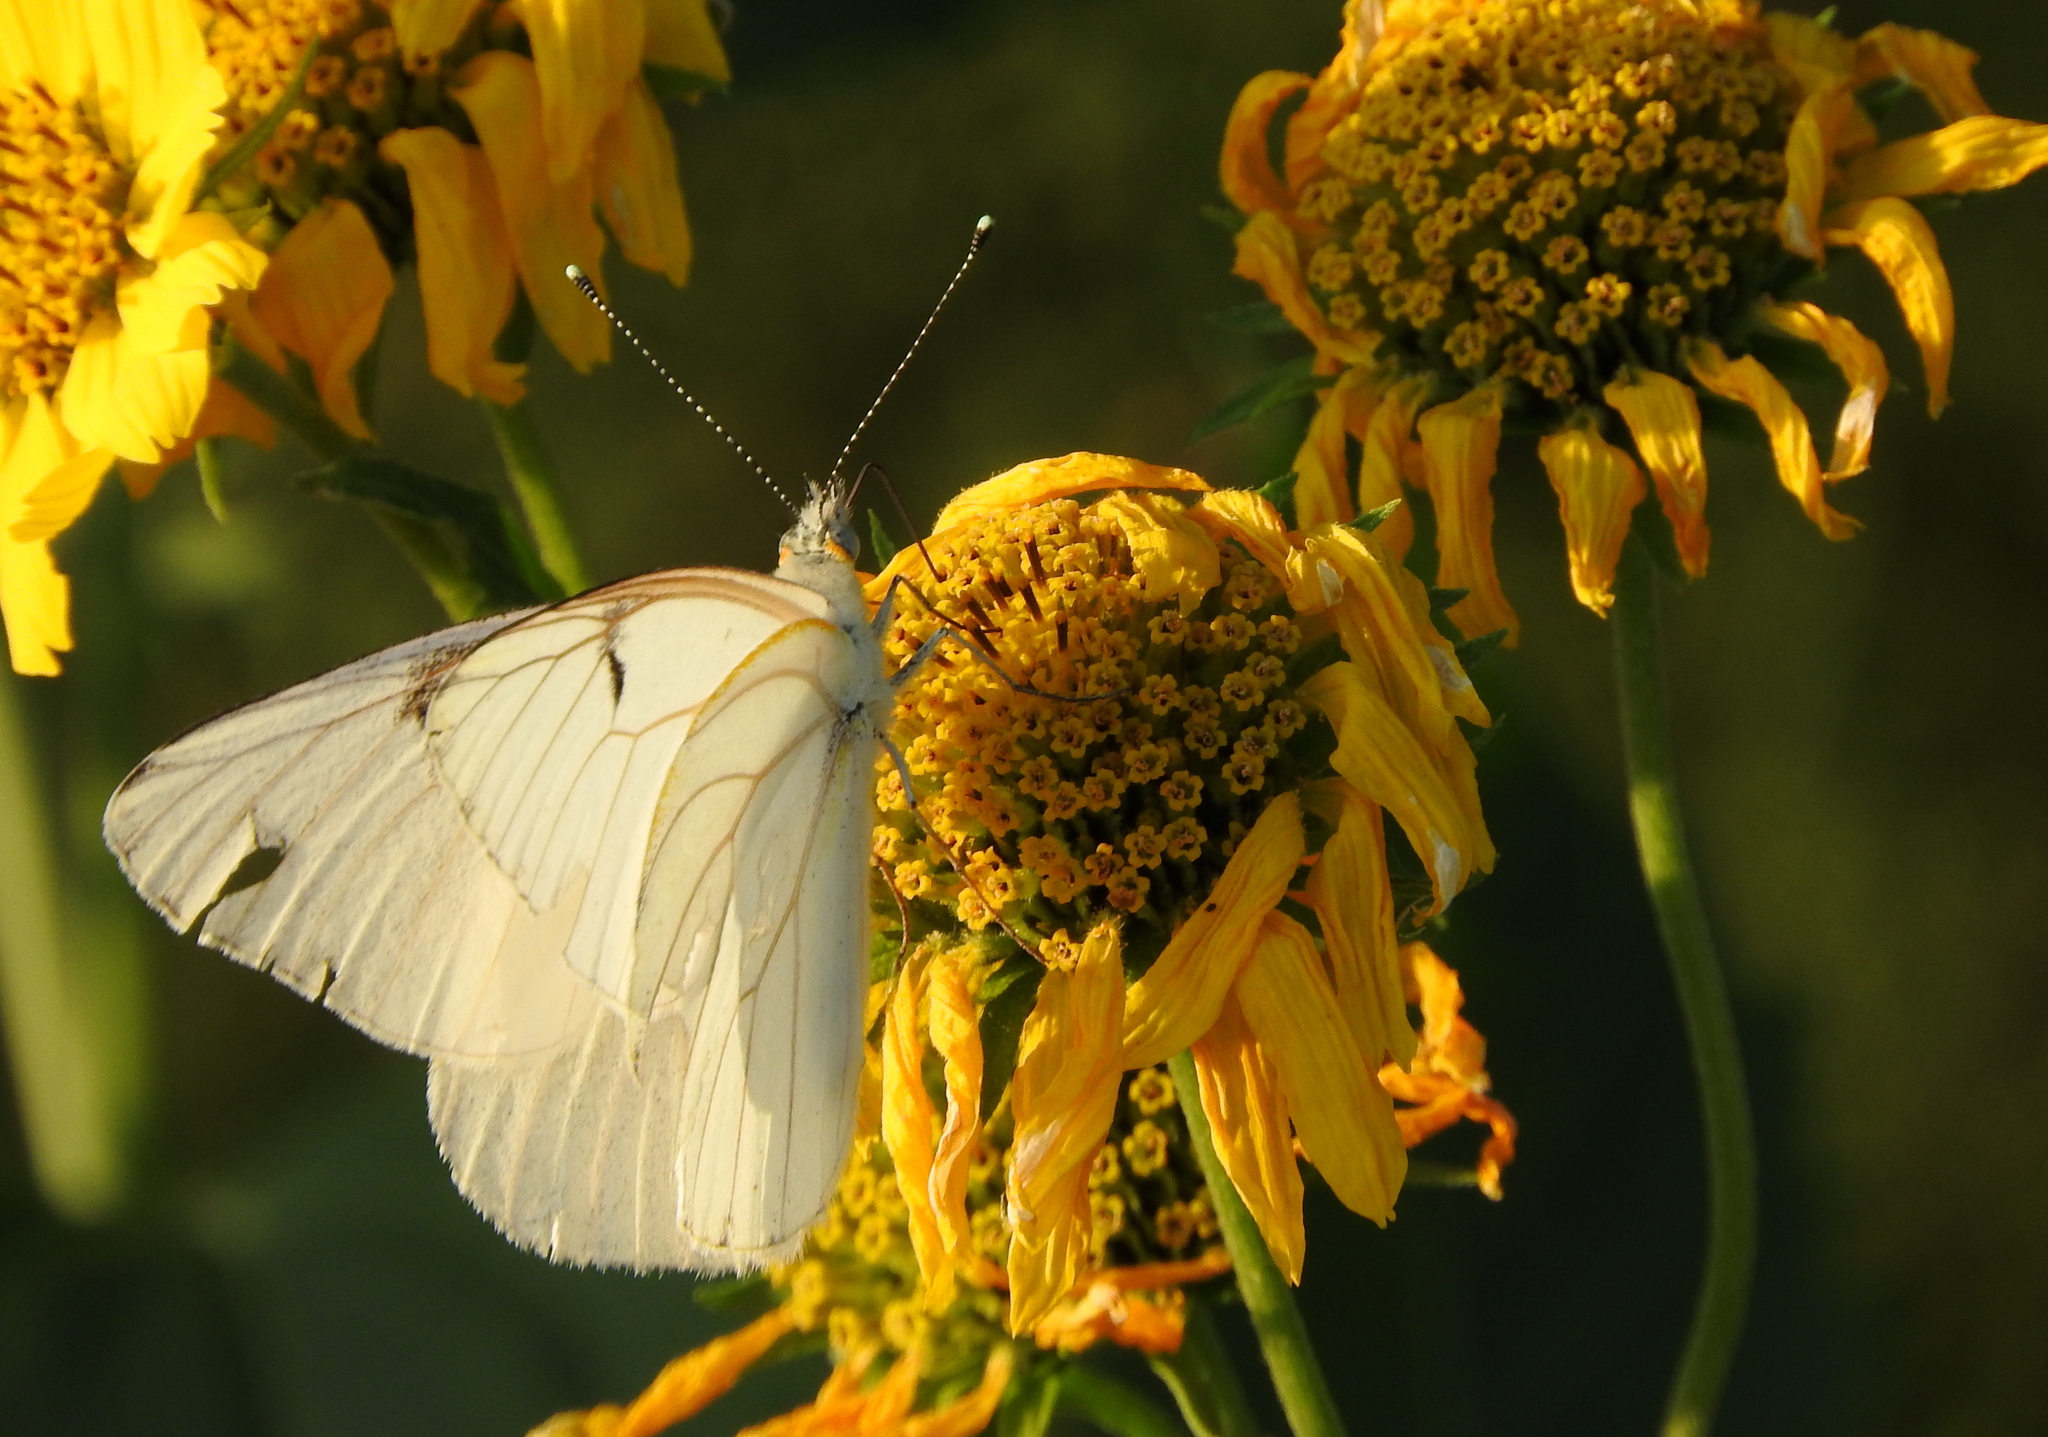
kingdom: Animalia
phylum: Arthropoda
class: Insecta
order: Lepidoptera
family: Pieridae
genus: Tatochila
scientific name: Tatochila mercedis
